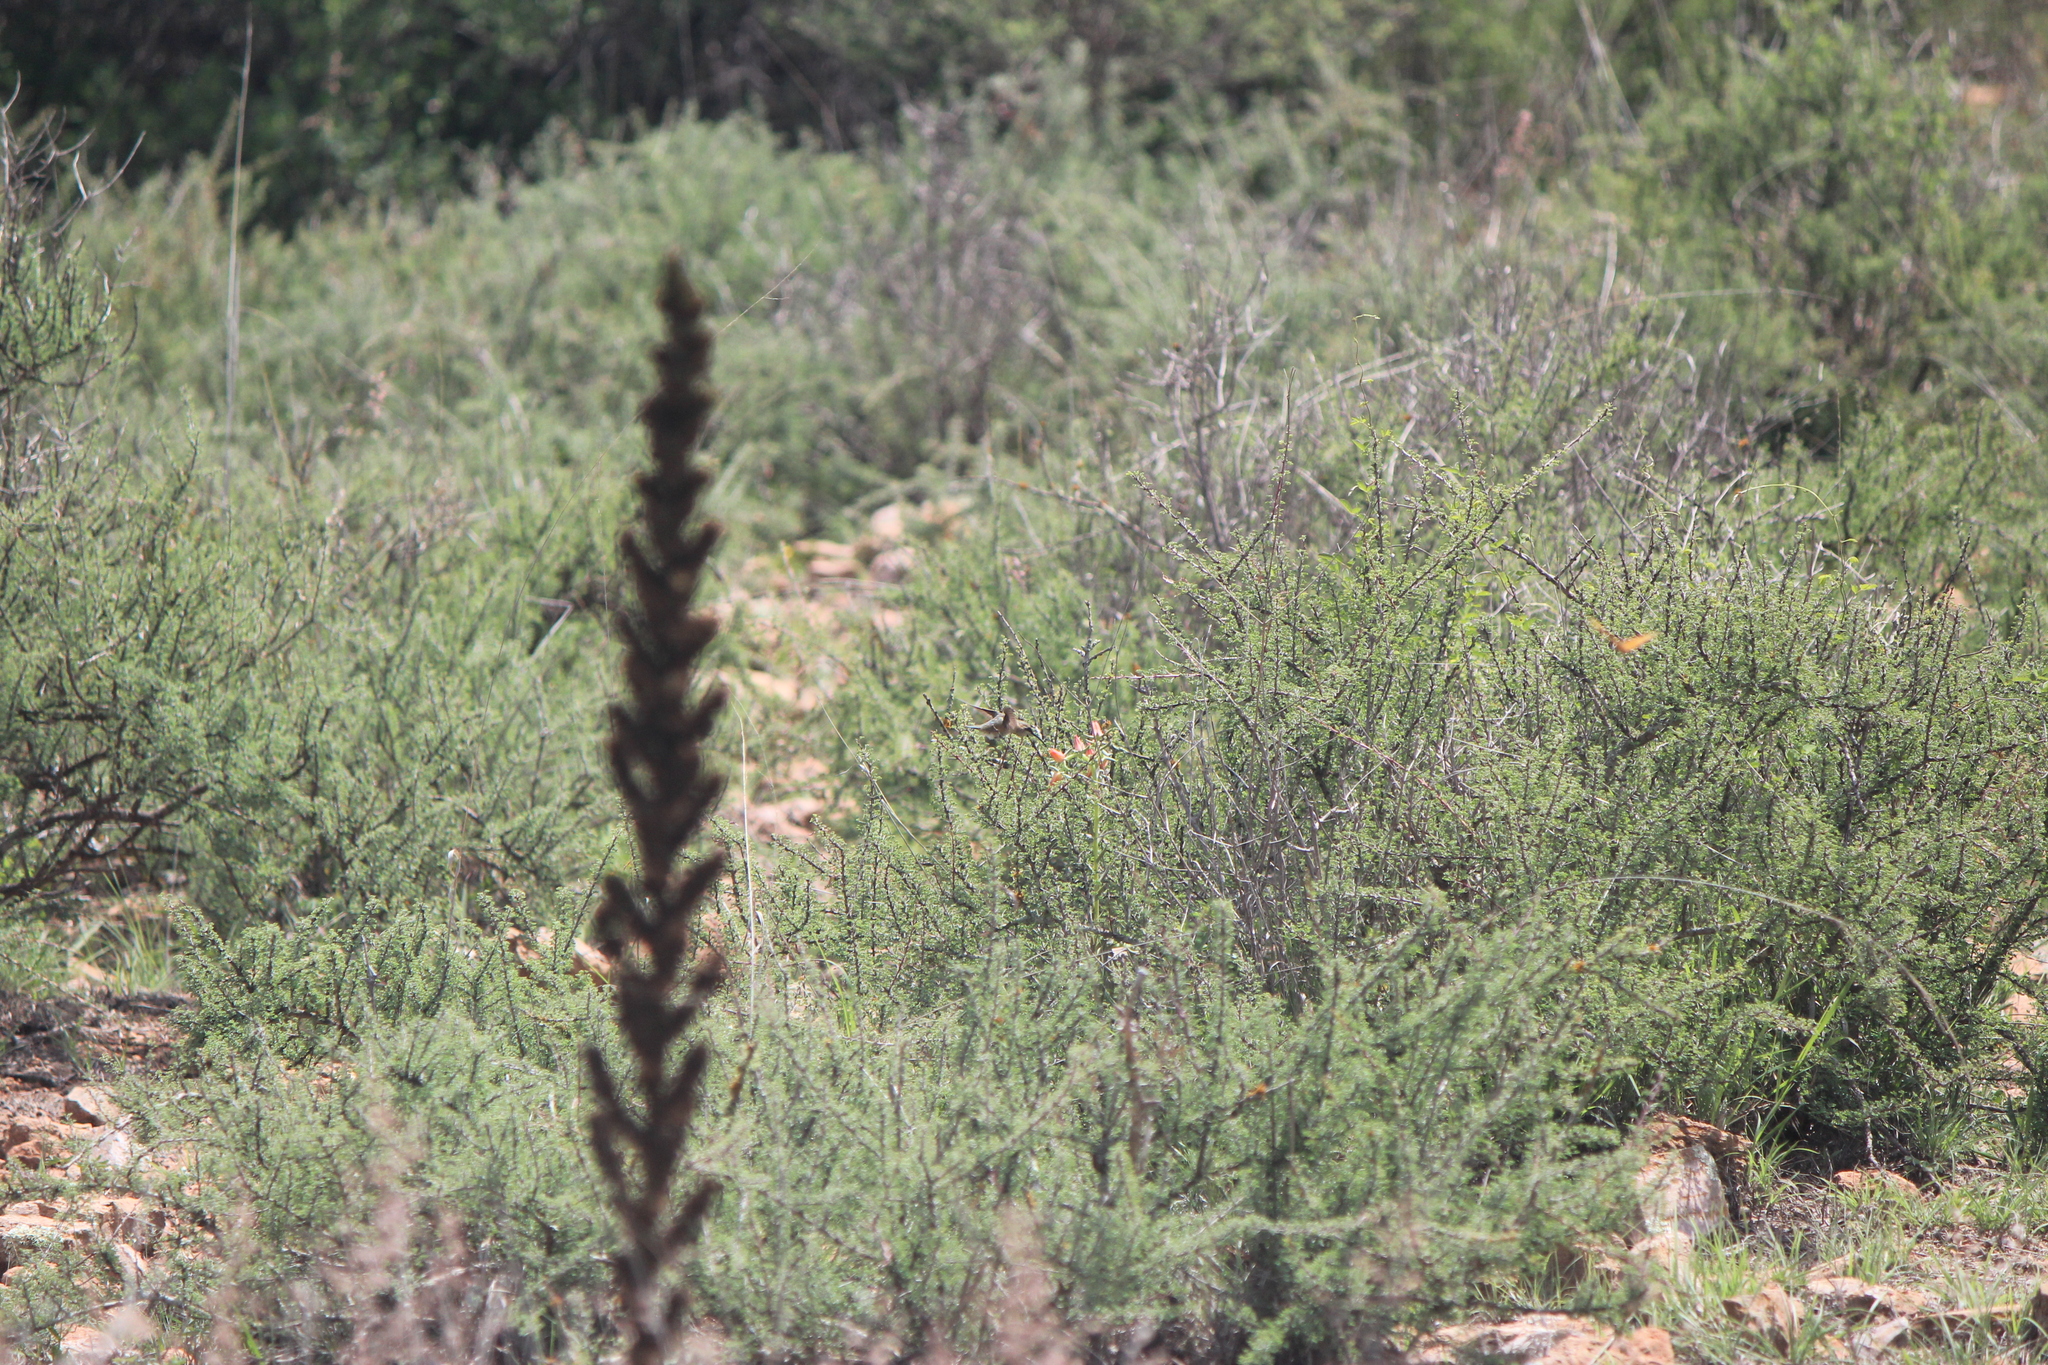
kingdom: Animalia
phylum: Chordata
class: Aves
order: Apodiformes
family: Trochilidae
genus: Calothorax
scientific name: Calothorax lucifer
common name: Lucifer sheartail
